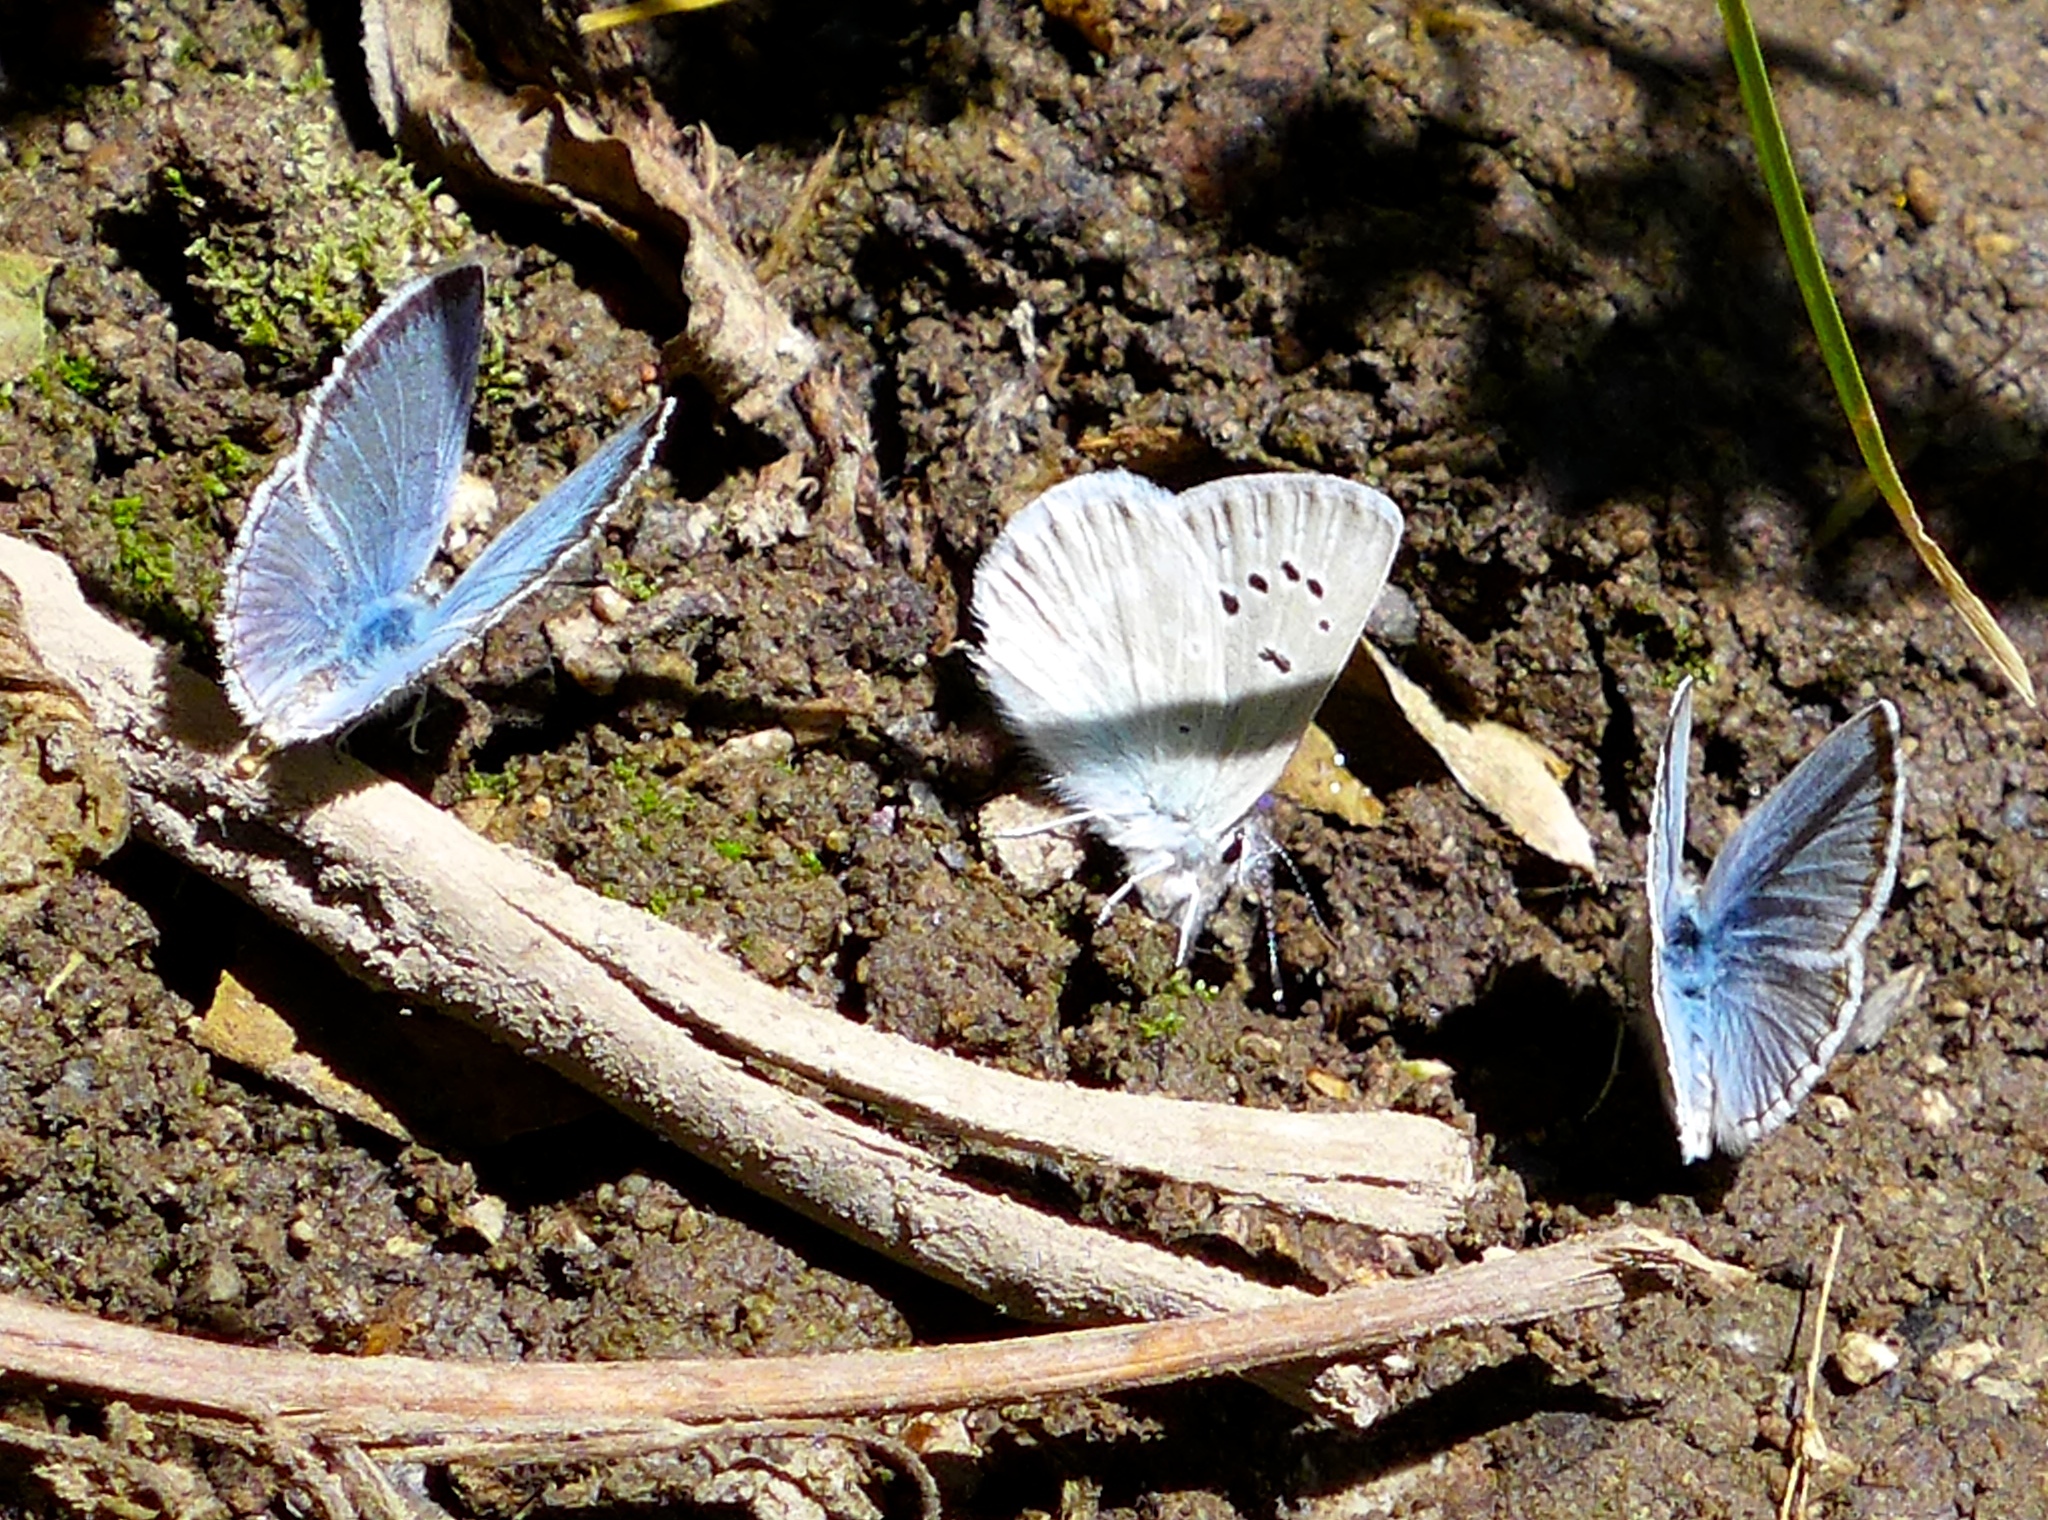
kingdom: Animalia
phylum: Arthropoda
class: Insecta
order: Lepidoptera
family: Lycaenidae
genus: Tharsalea
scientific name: Tharsalea heteronea
